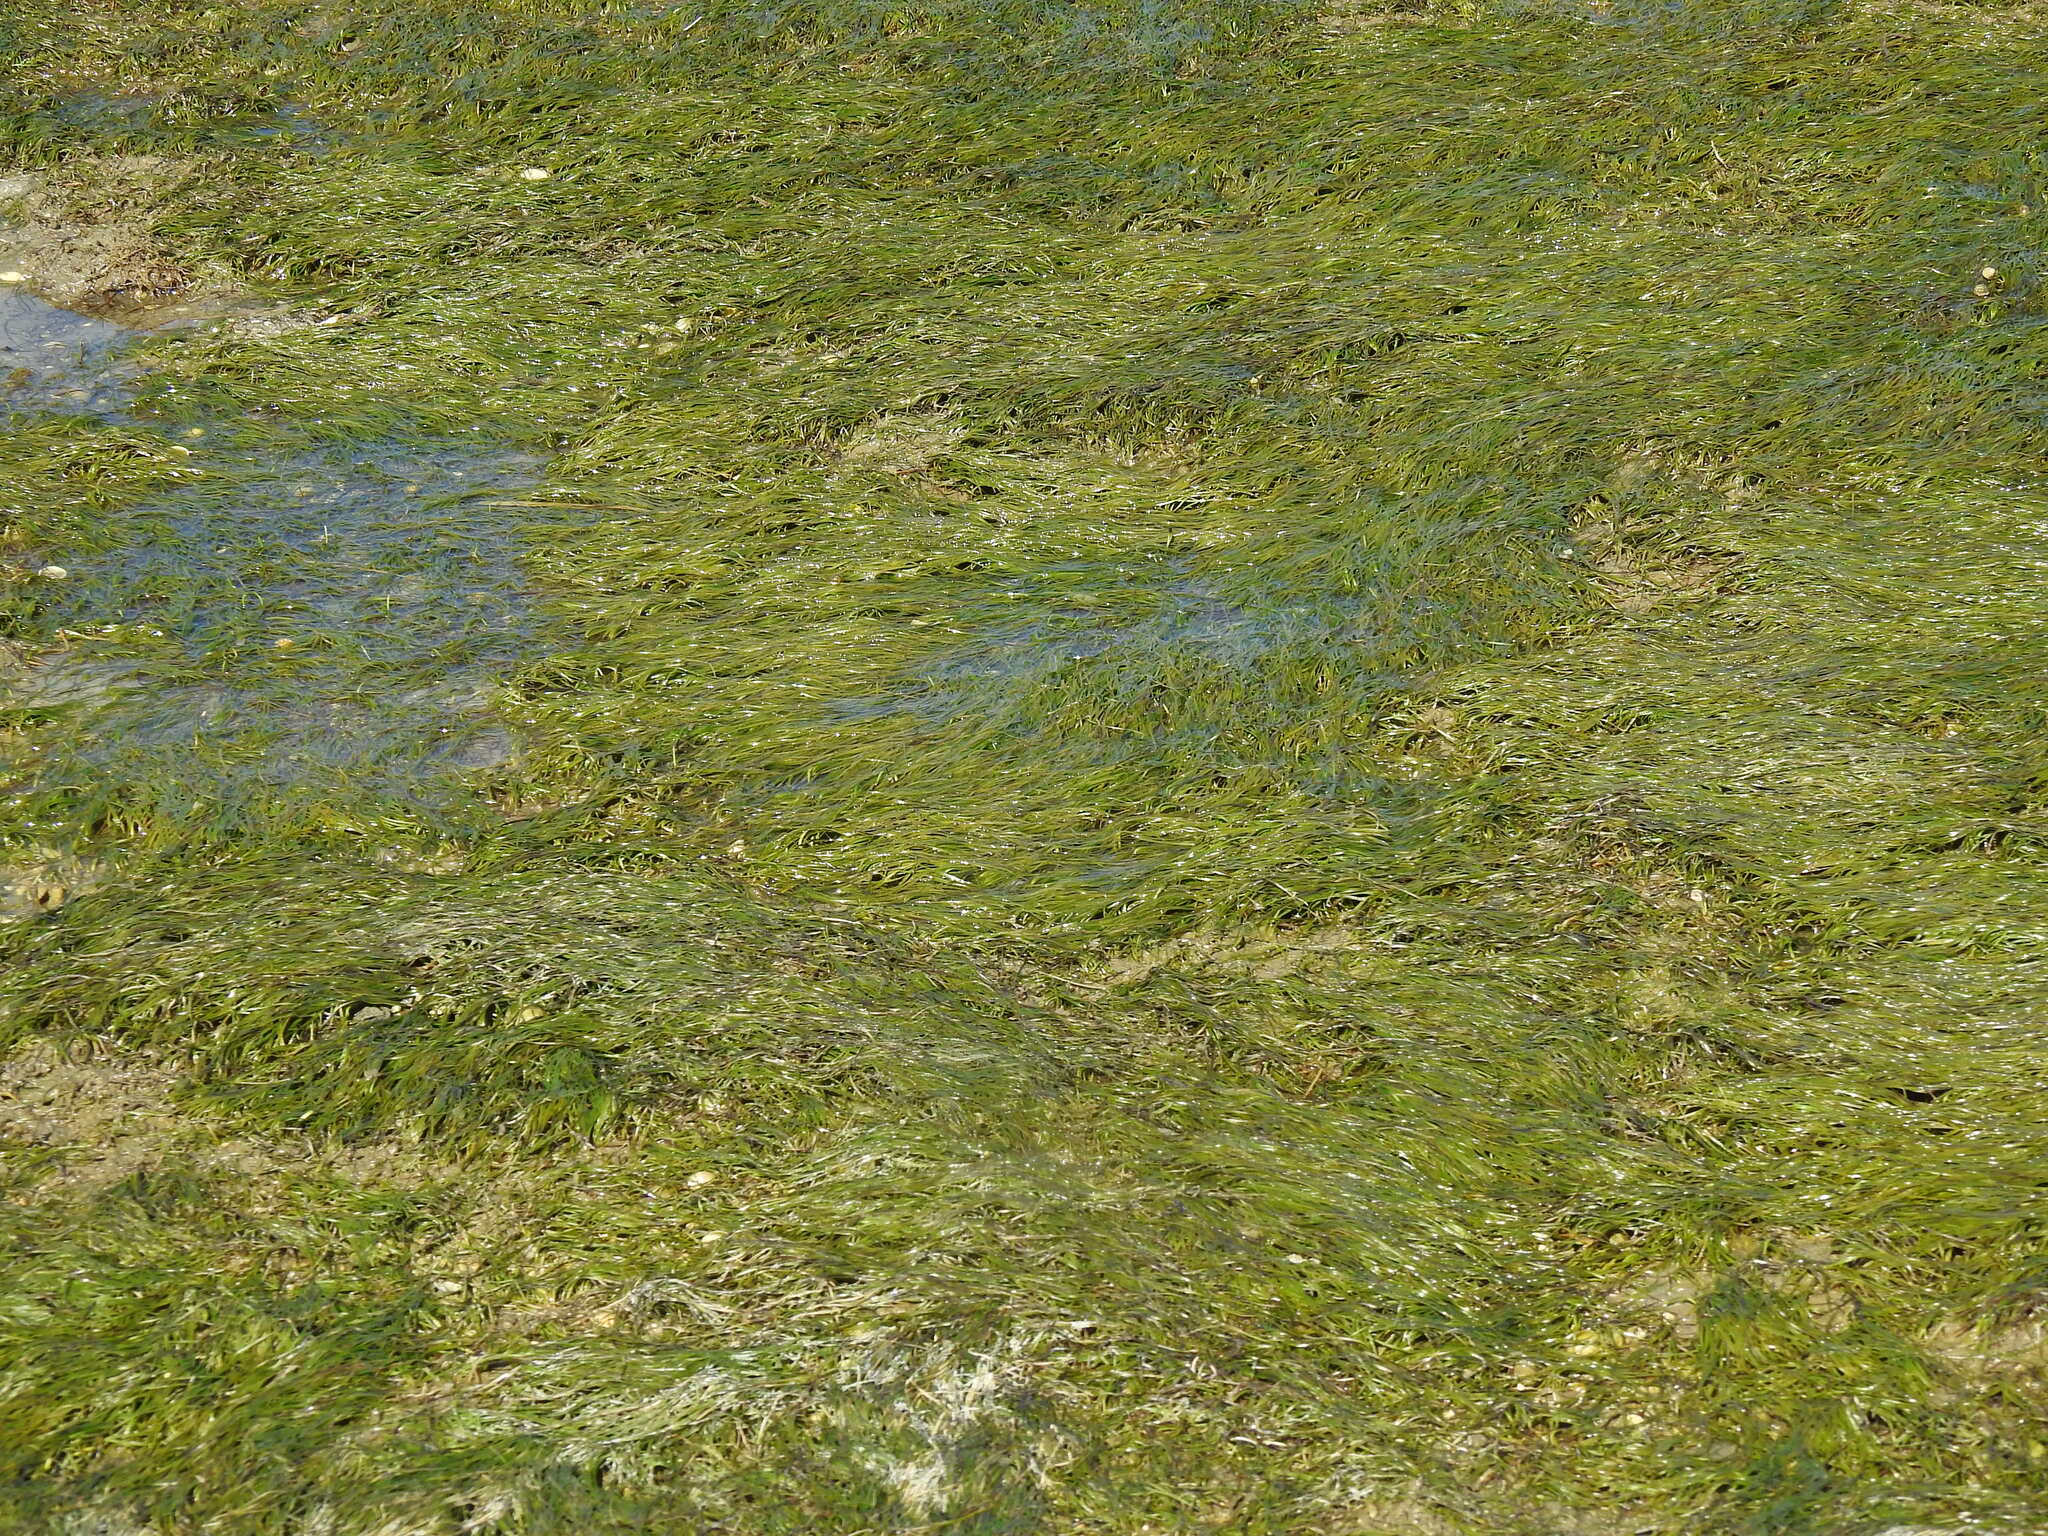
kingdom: Plantae
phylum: Tracheophyta
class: Liliopsida
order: Alismatales
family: Zosteraceae
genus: Zostera
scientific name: Zostera noltii
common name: Dwarf eelgrass
